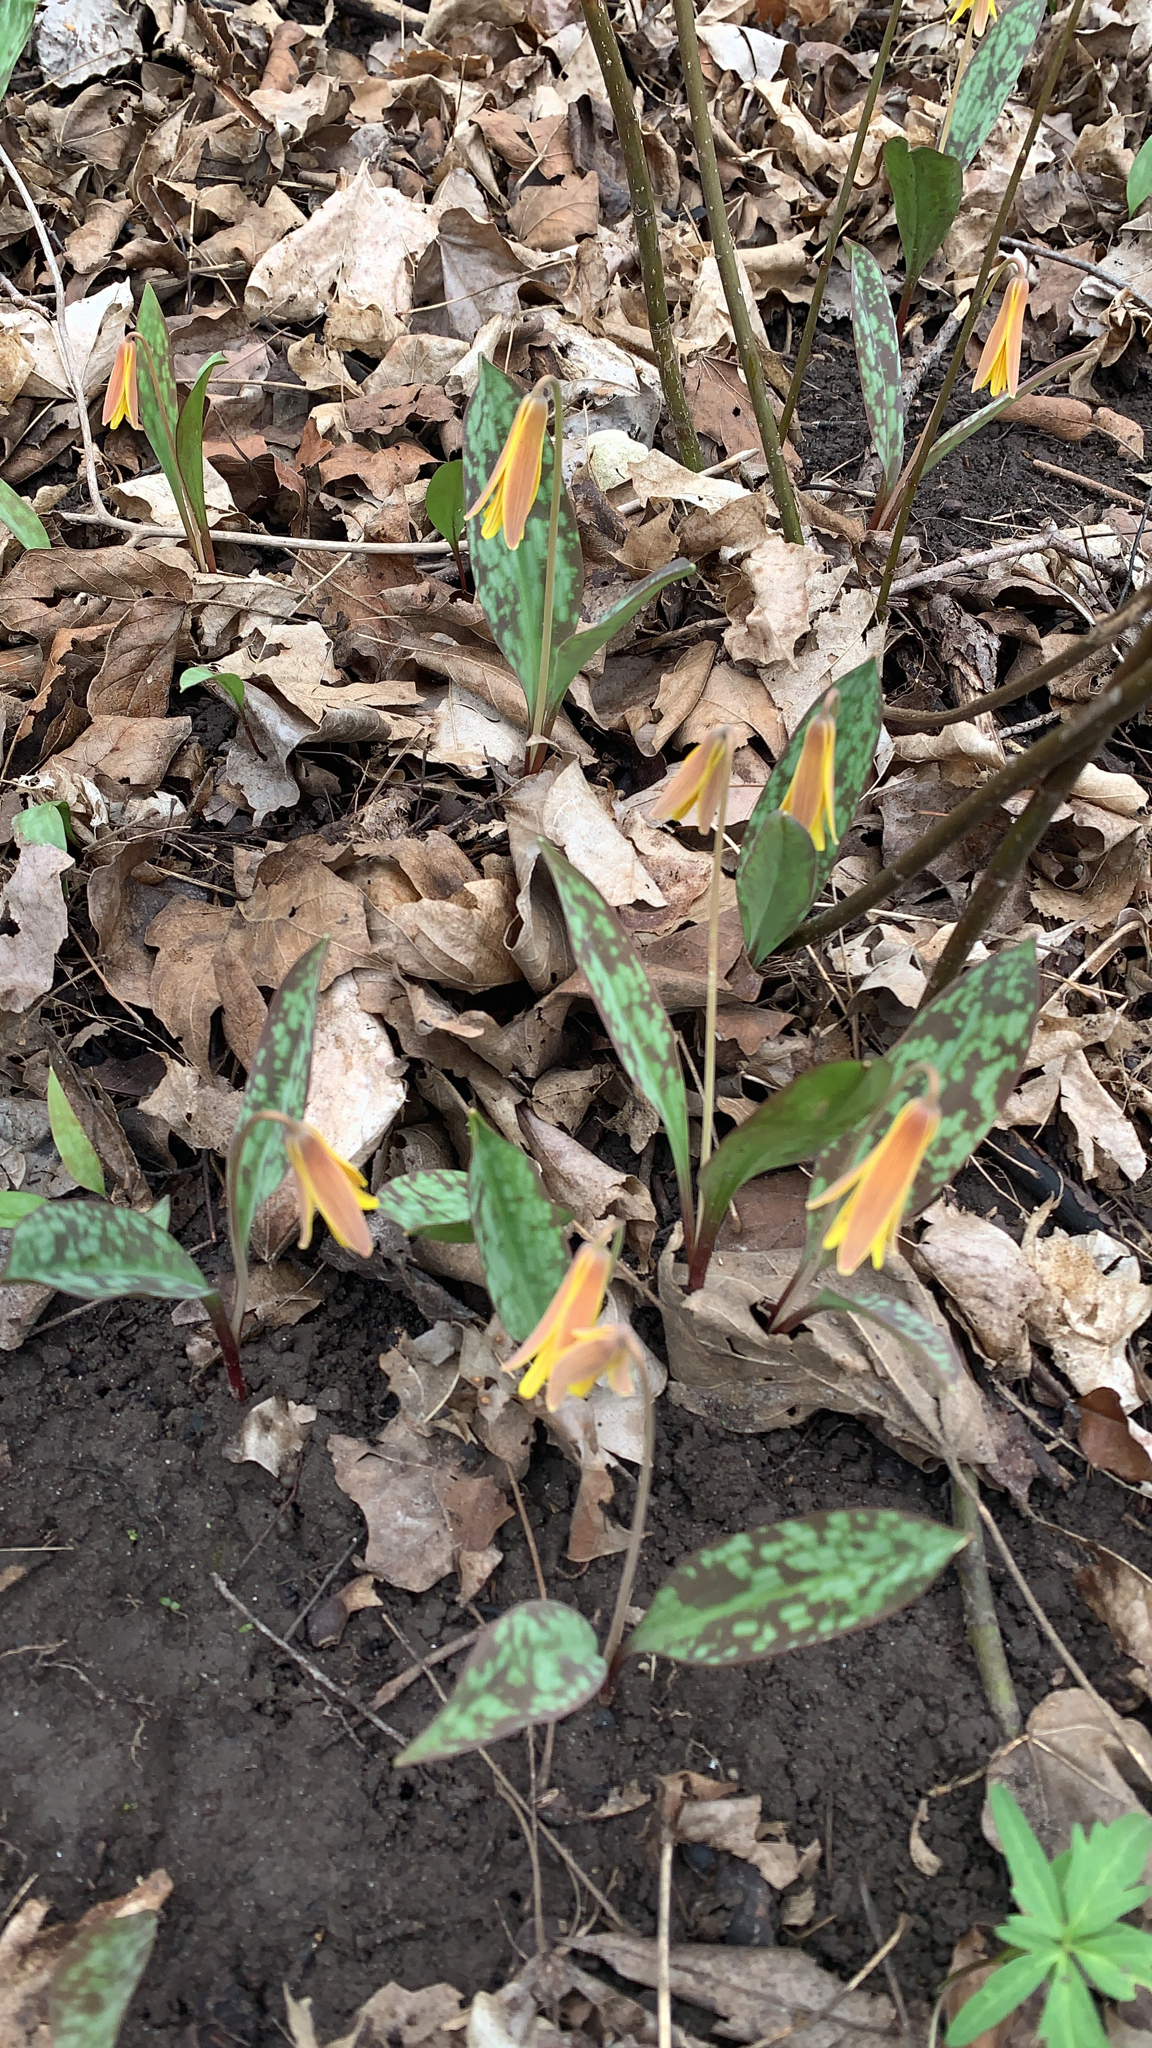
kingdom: Plantae
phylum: Tracheophyta
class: Liliopsida
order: Liliales
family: Liliaceae
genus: Erythronium
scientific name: Erythronium americanum
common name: Yellow adder's-tongue
